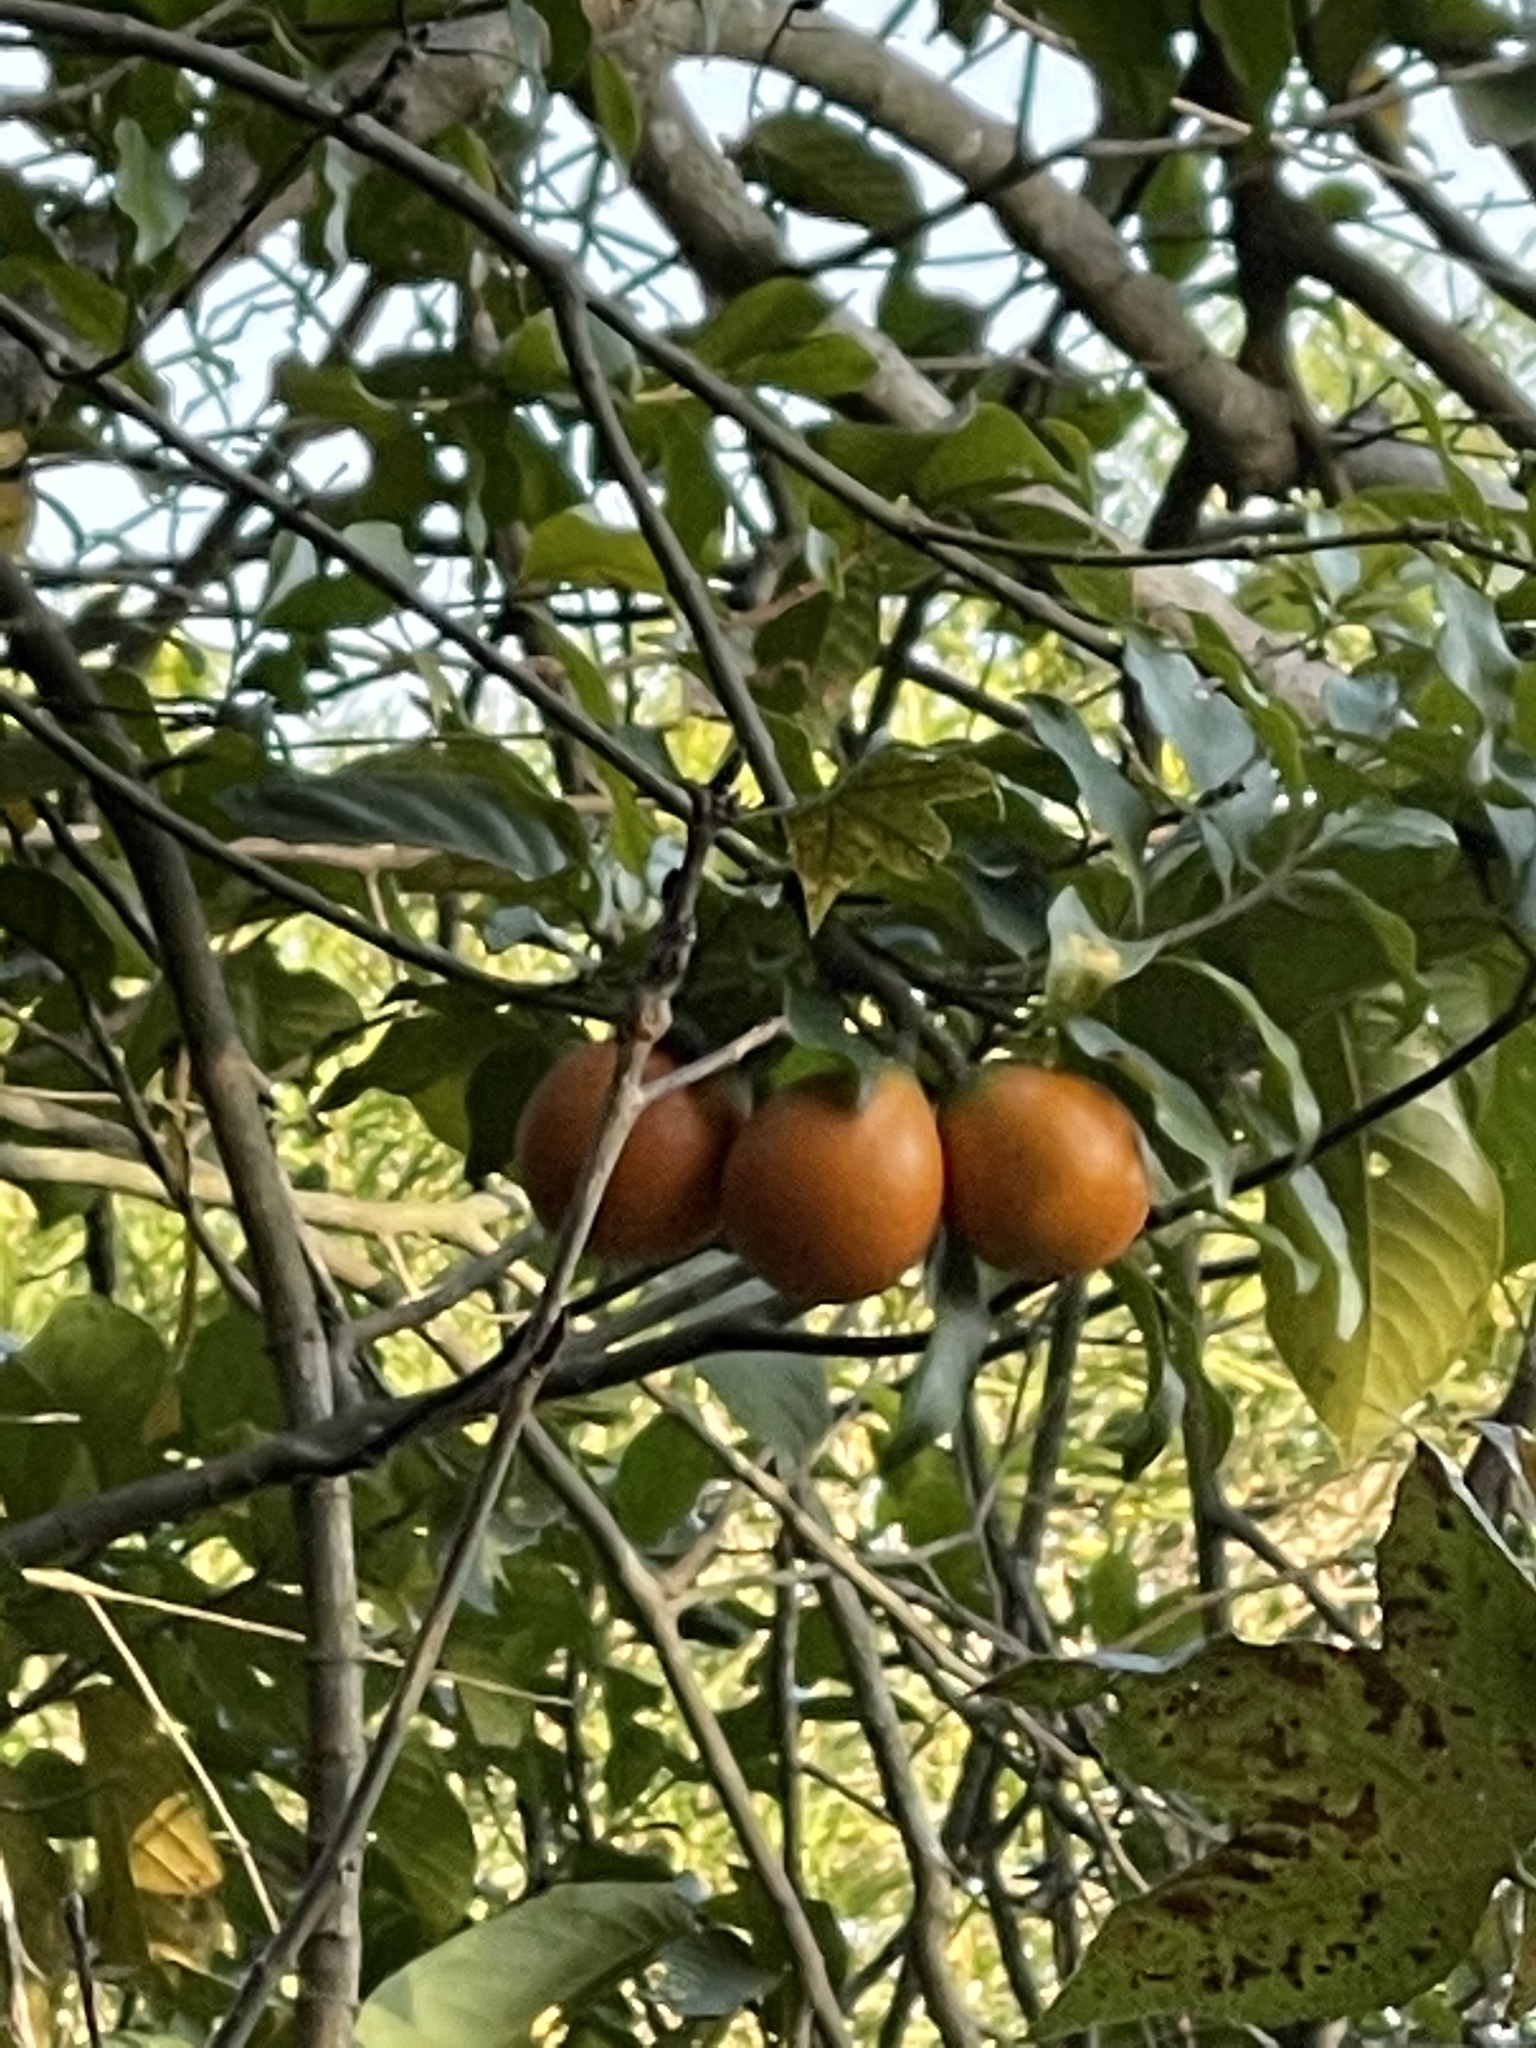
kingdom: Plantae
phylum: Tracheophyta
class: Magnoliopsida
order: Gentianales
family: Apocynaceae
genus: Melodinus
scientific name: Melodinus suaveolens
